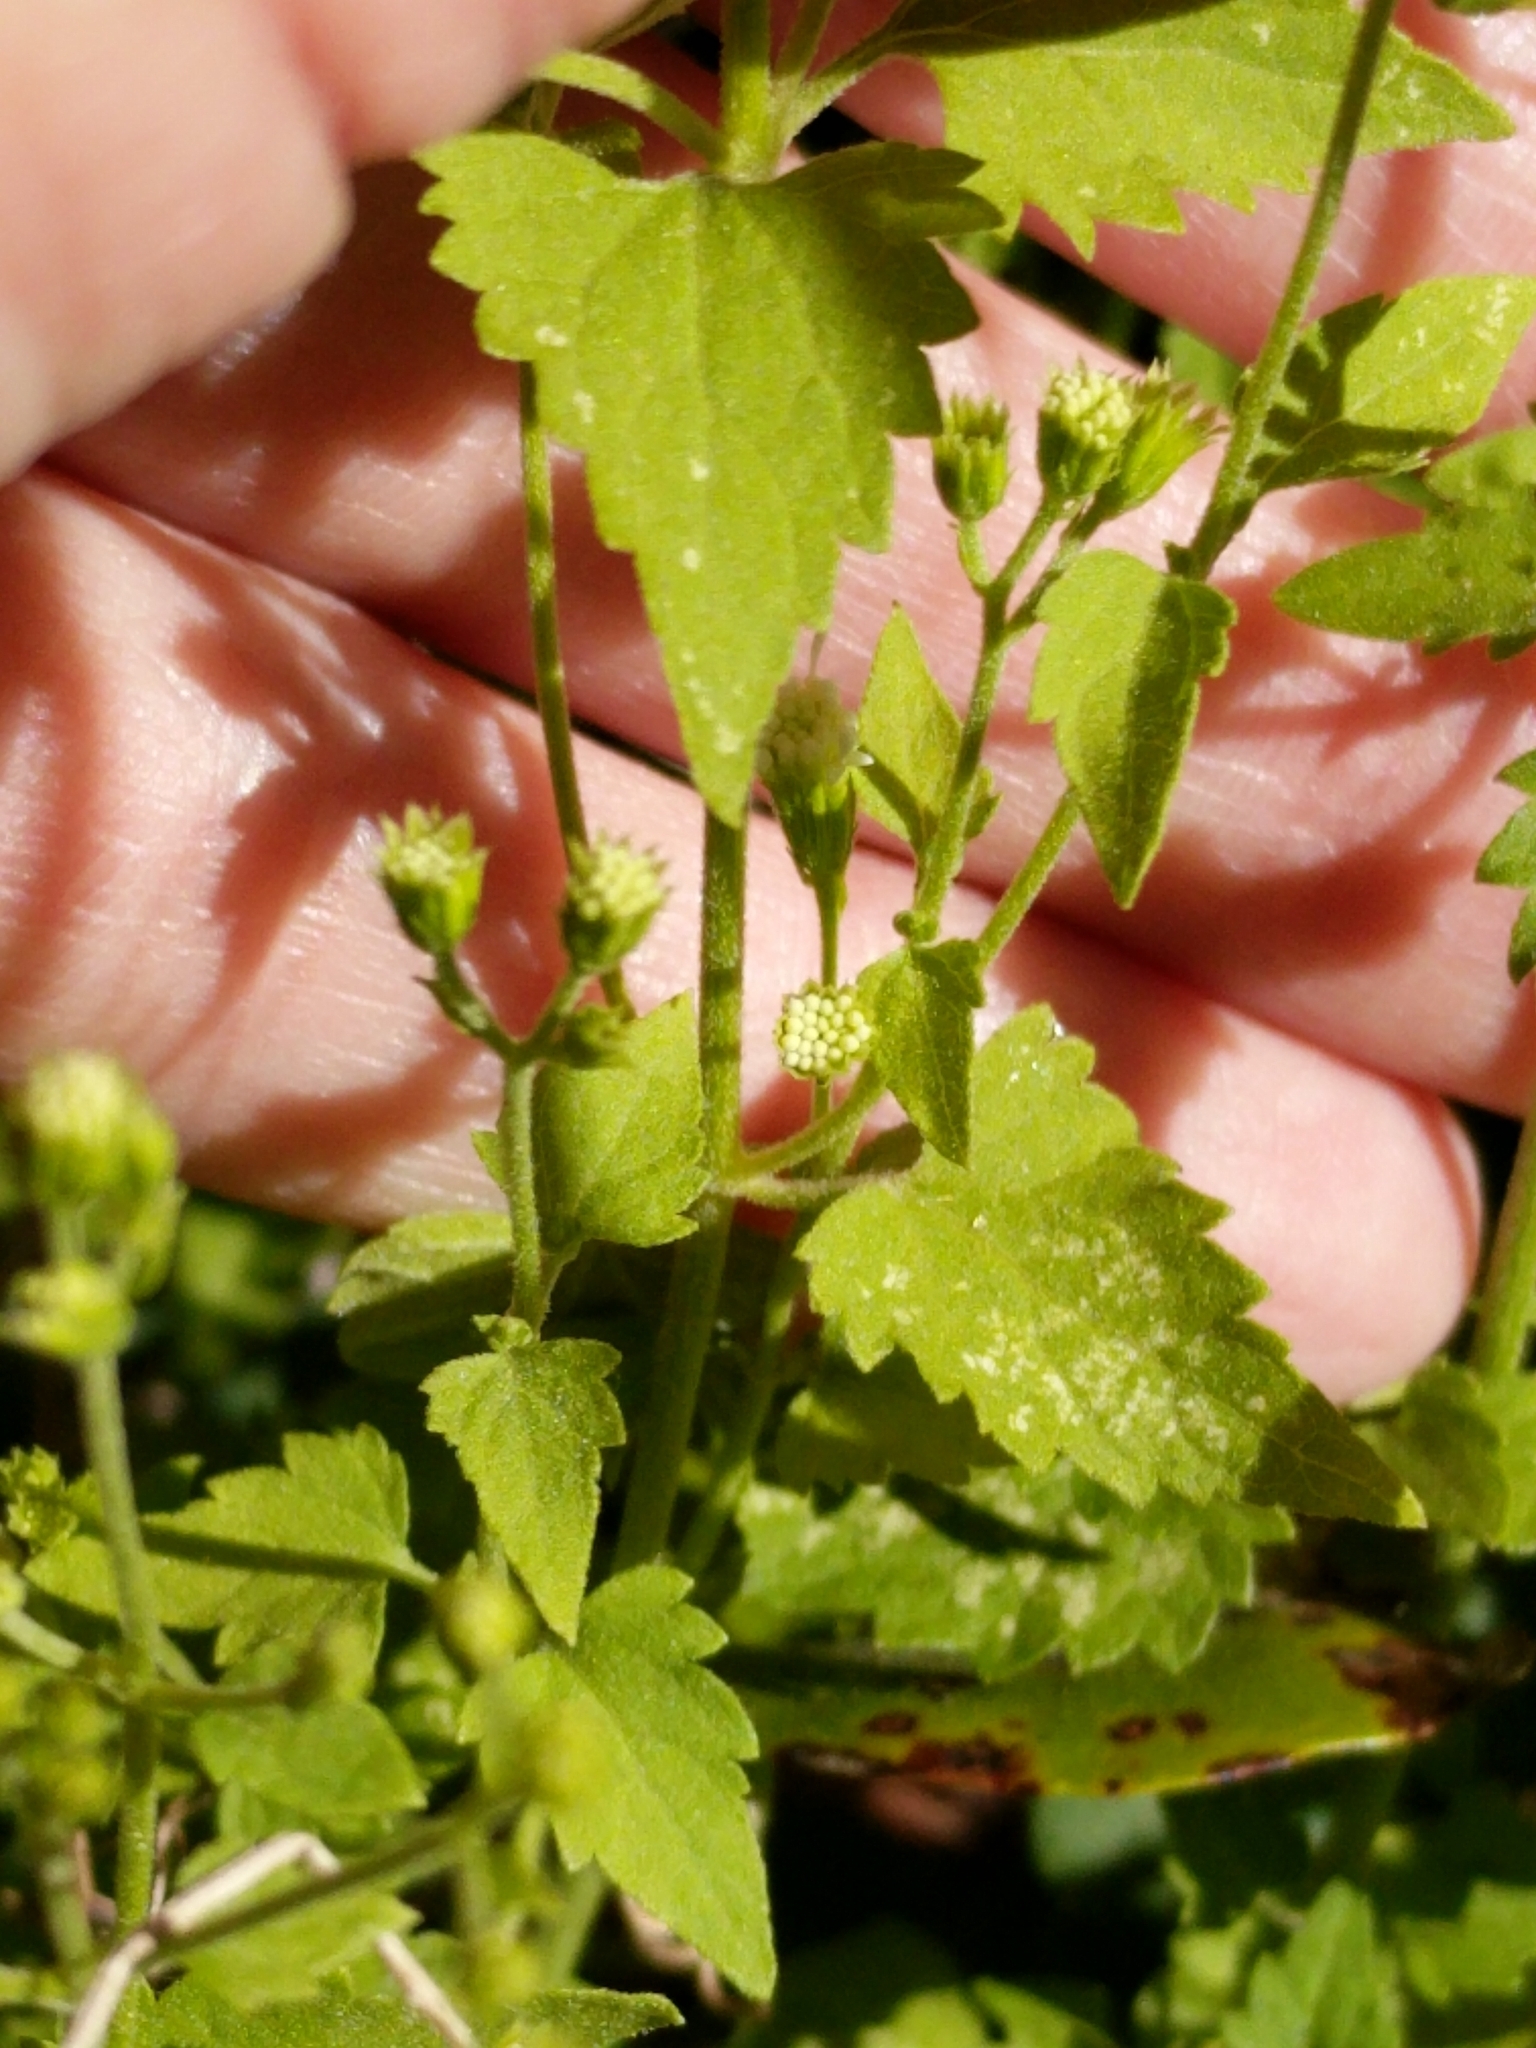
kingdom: Plantae
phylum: Tracheophyta
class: Magnoliopsida
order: Asterales
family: Asteraceae
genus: Fleischmannia
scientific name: Fleischmannia incarnata
